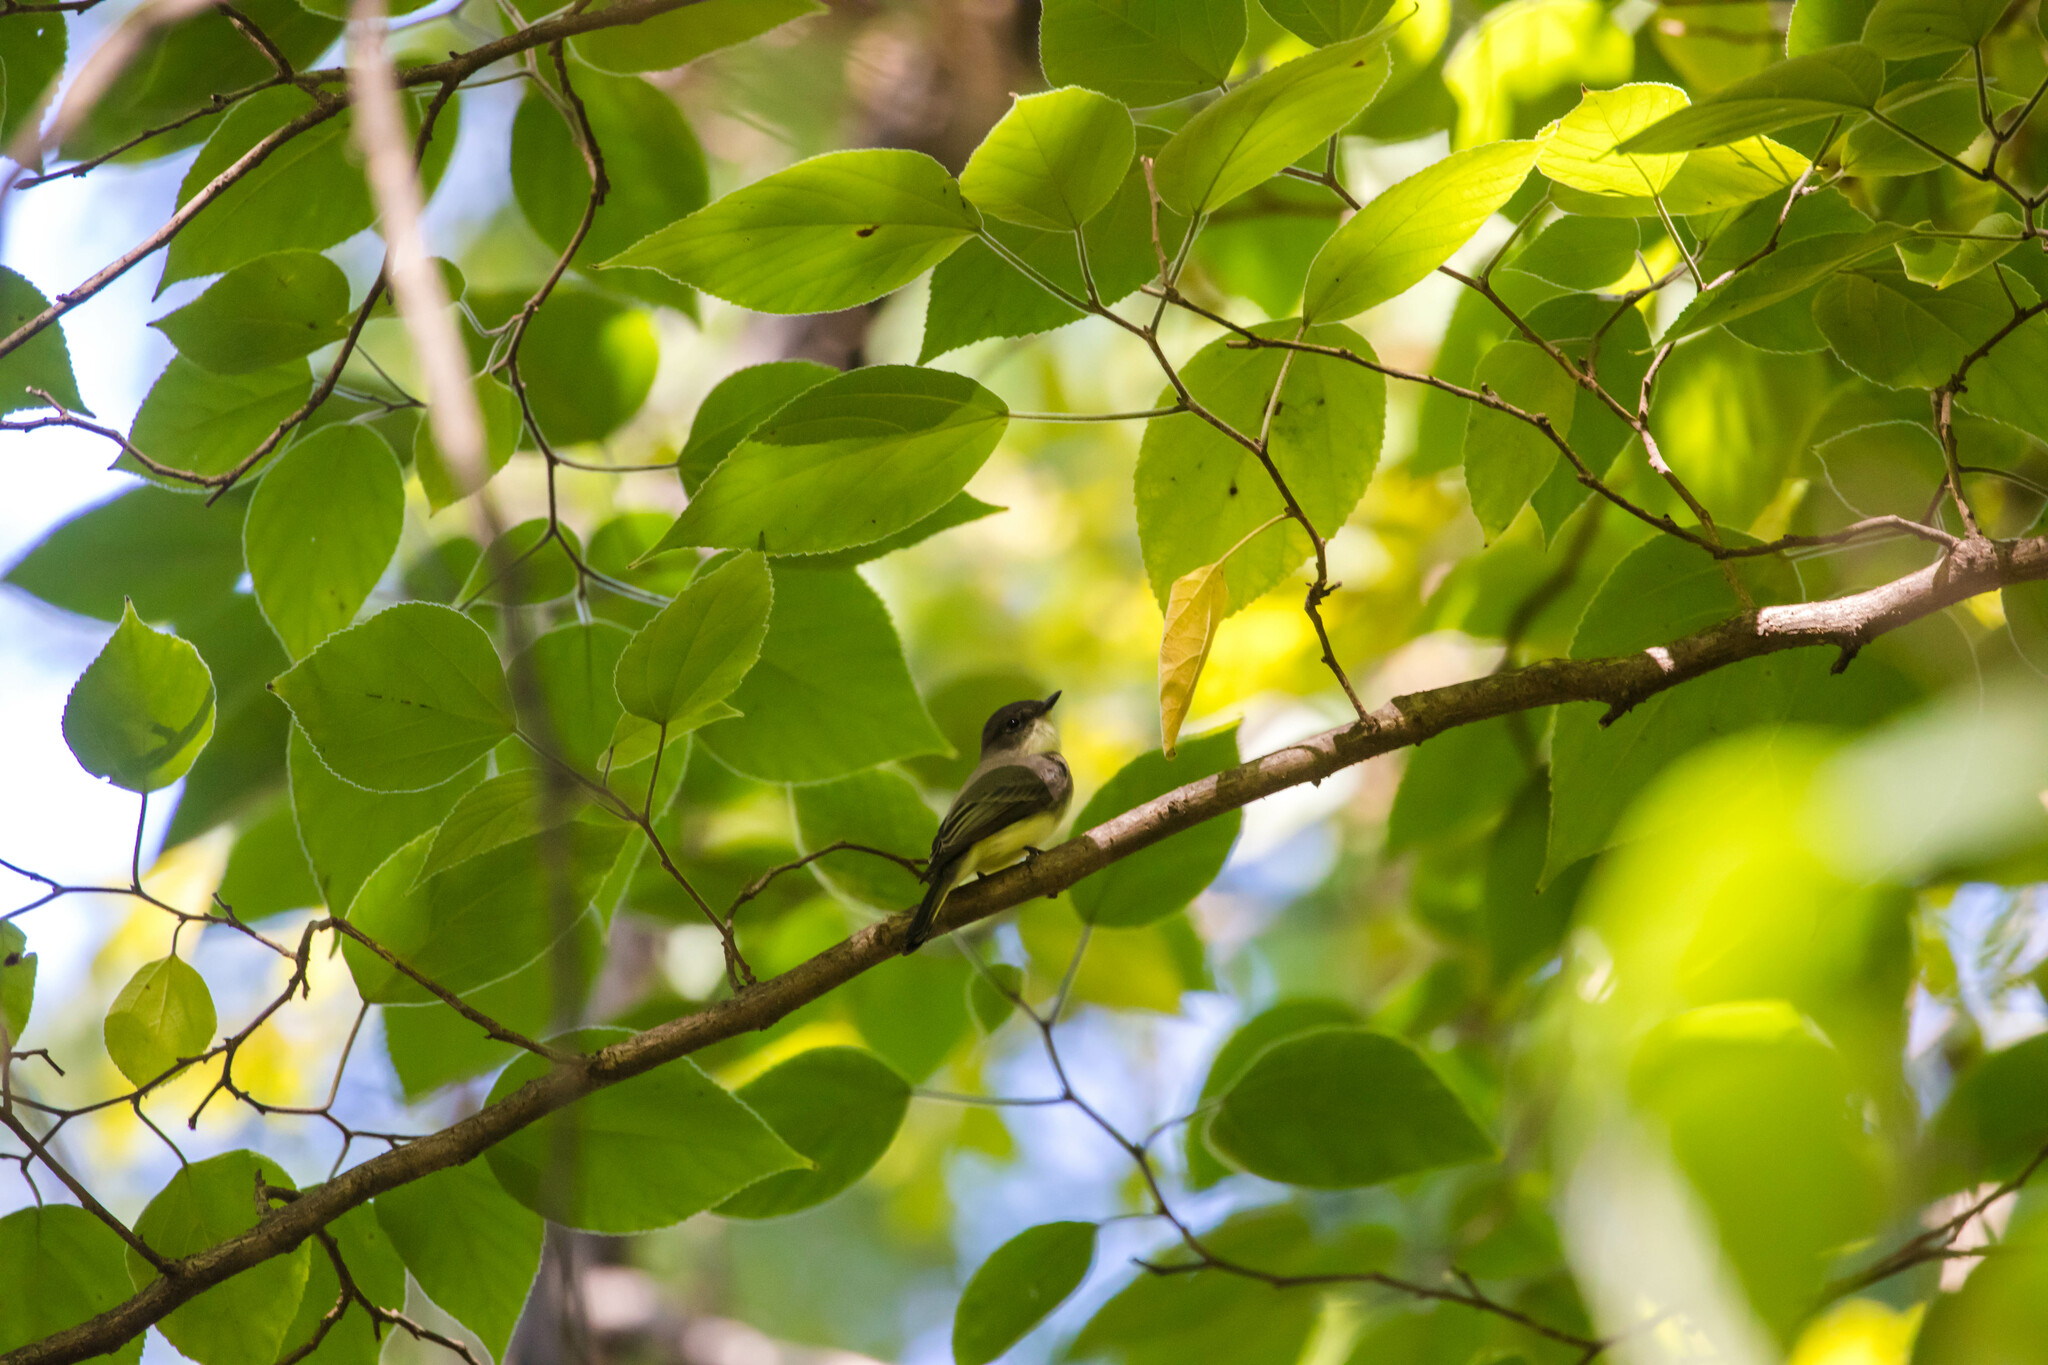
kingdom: Animalia
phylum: Chordata
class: Aves
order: Passeriformes
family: Tyrannidae
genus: Sayornis
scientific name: Sayornis phoebe
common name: Eastern phoebe
